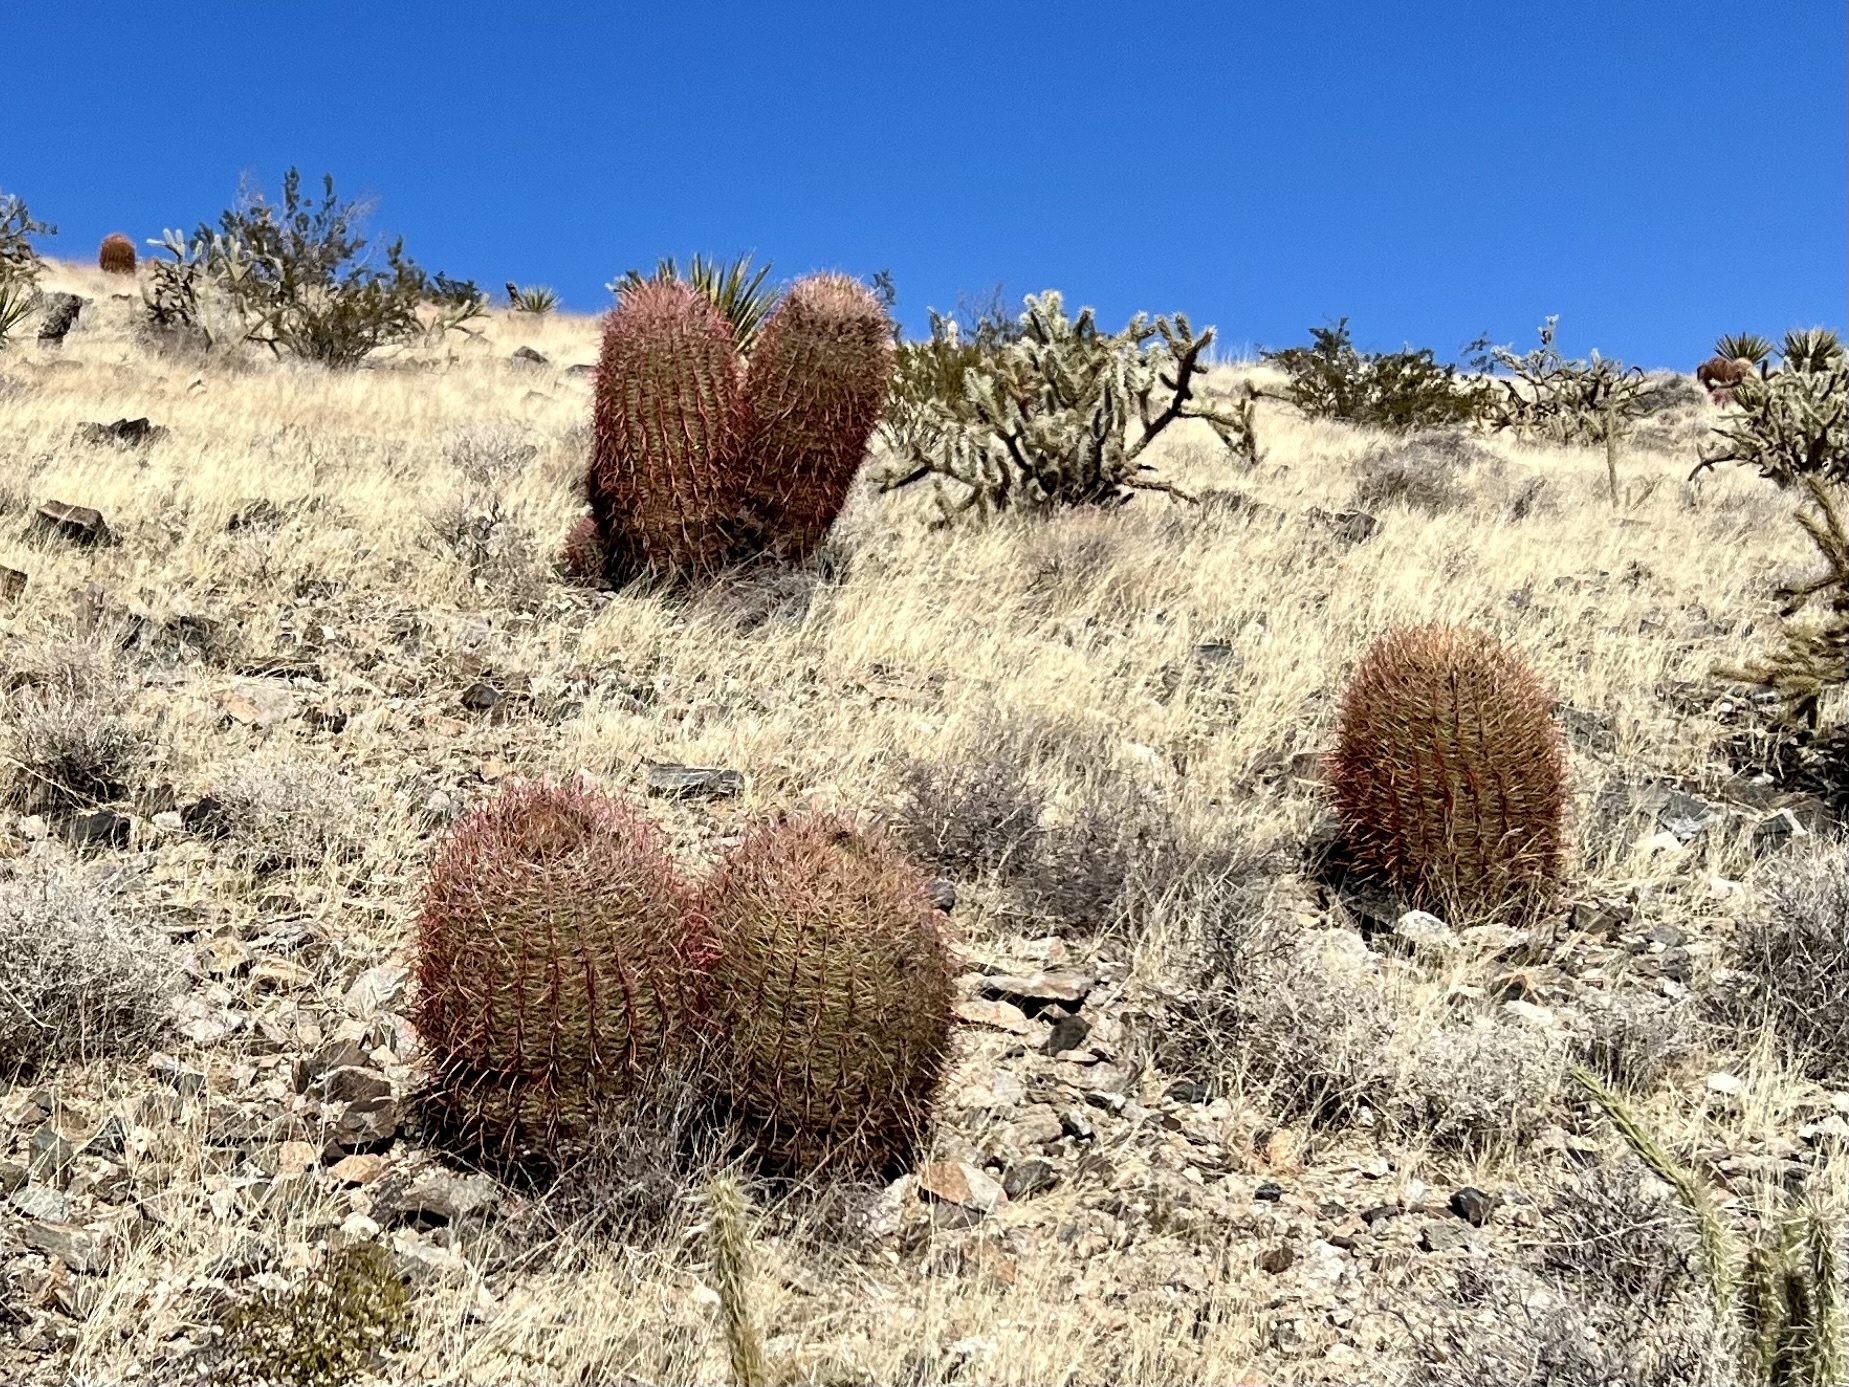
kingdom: Plantae
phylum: Tracheophyta
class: Magnoliopsida
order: Caryophyllales
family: Cactaceae
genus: Ferocactus
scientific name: Ferocactus cylindraceus
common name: California barrel cactus
